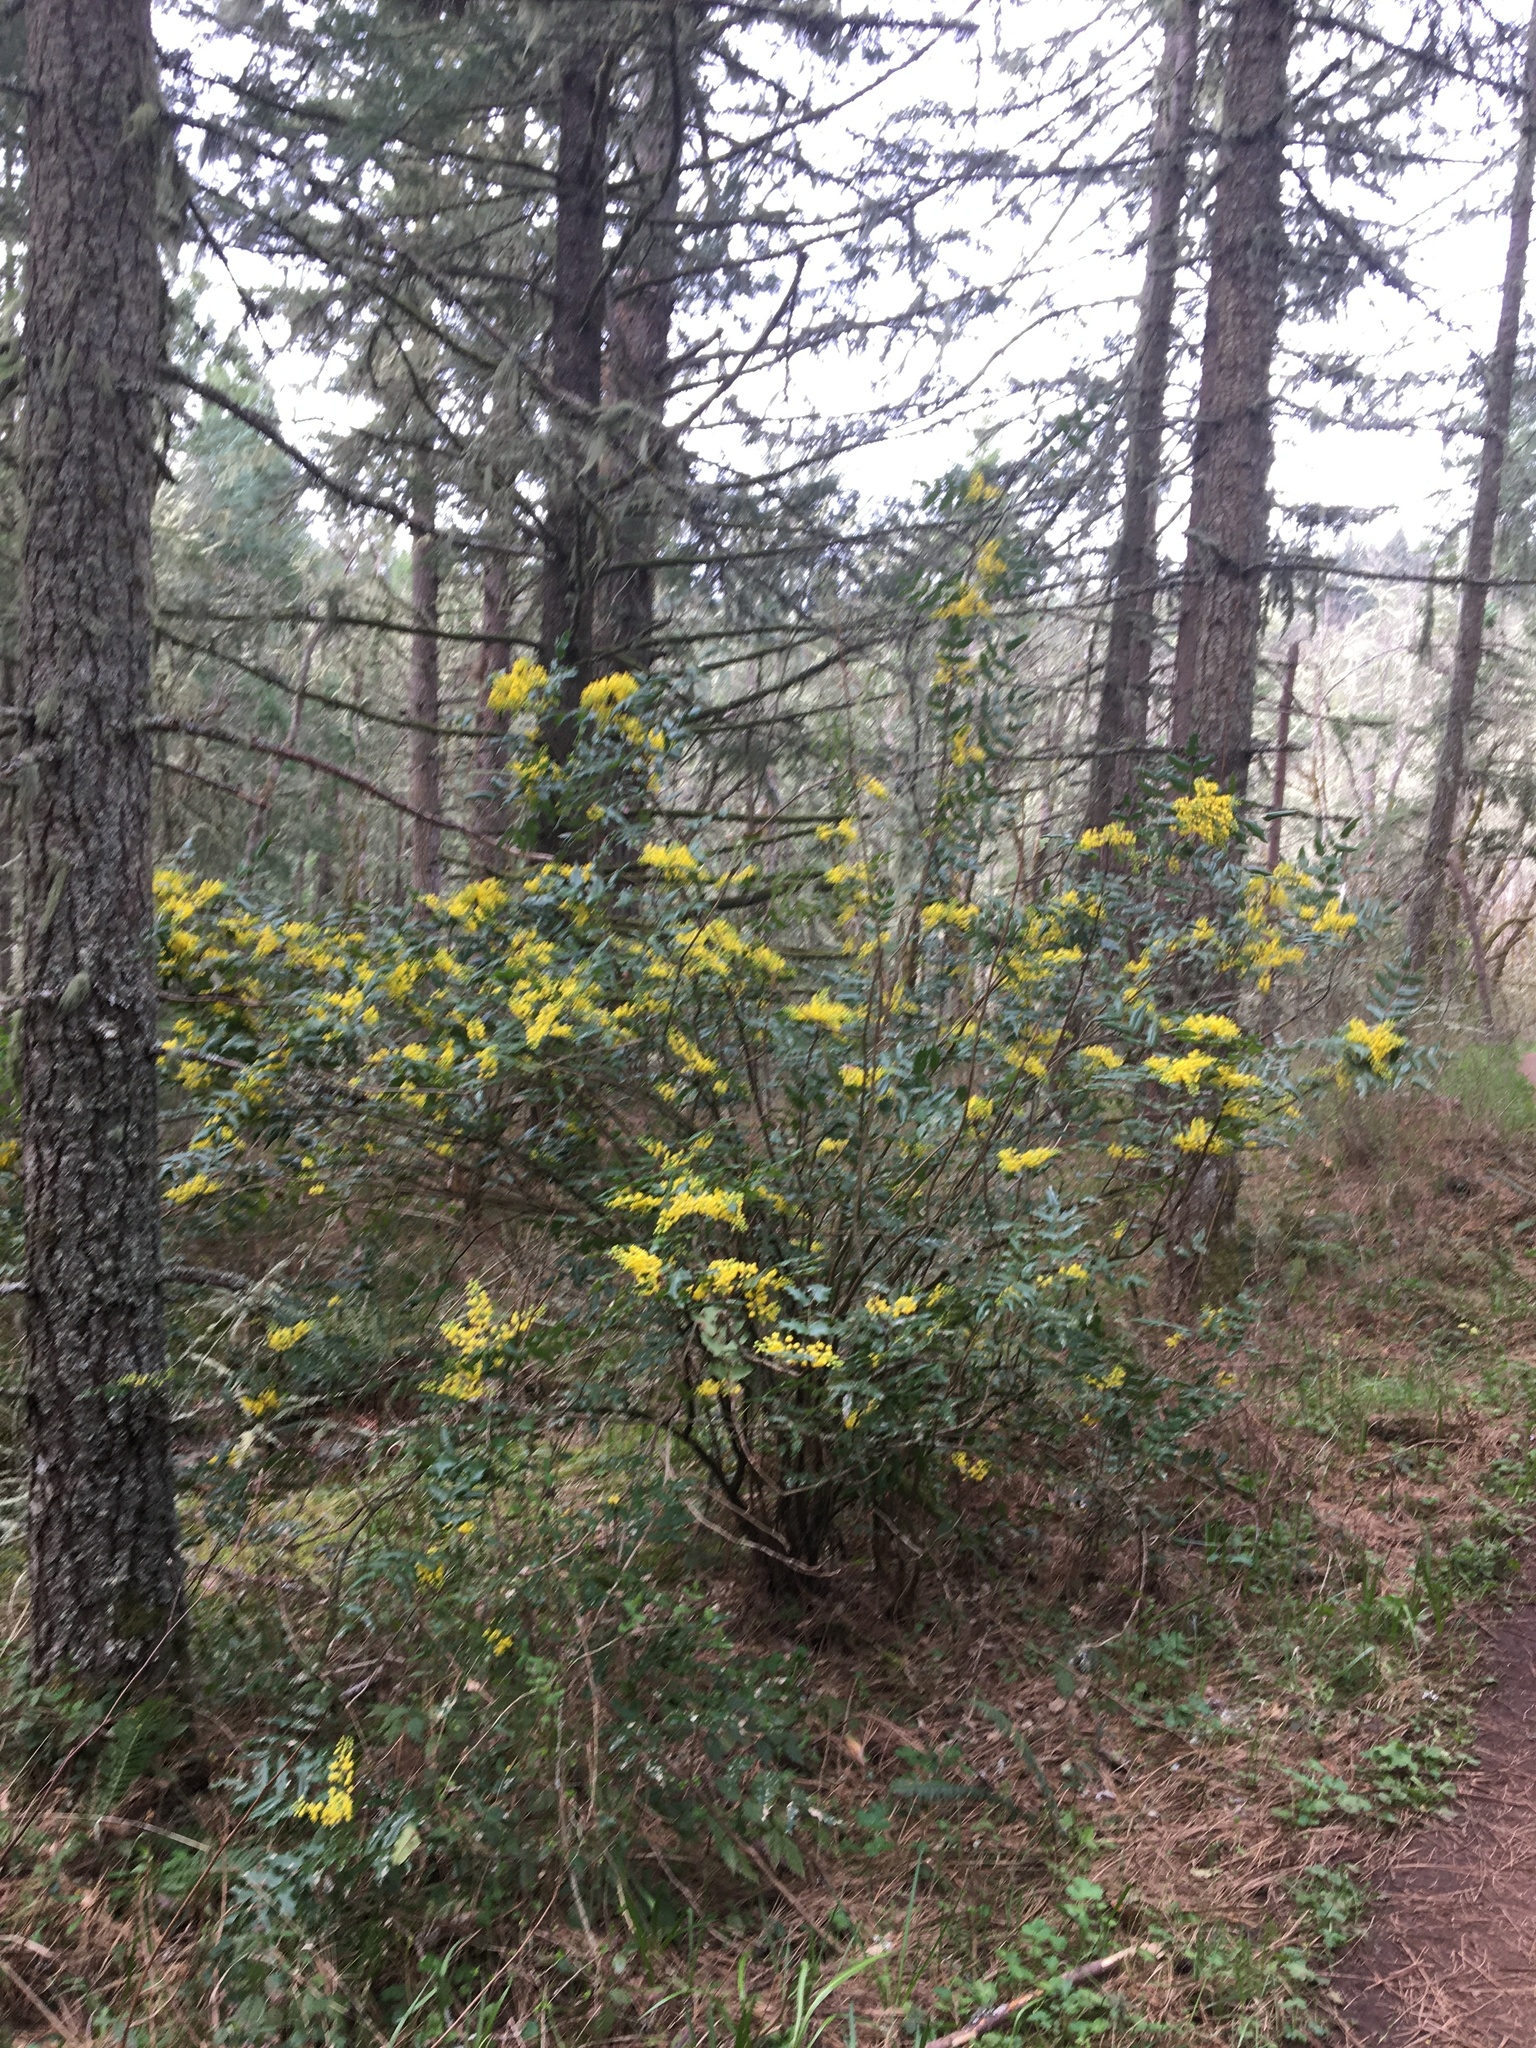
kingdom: Plantae
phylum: Tracheophyta
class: Magnoliopsida
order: Ranunculales
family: Berberidaceae
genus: Mahonia
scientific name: Mahonia aquifolium
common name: Oregon-grape
